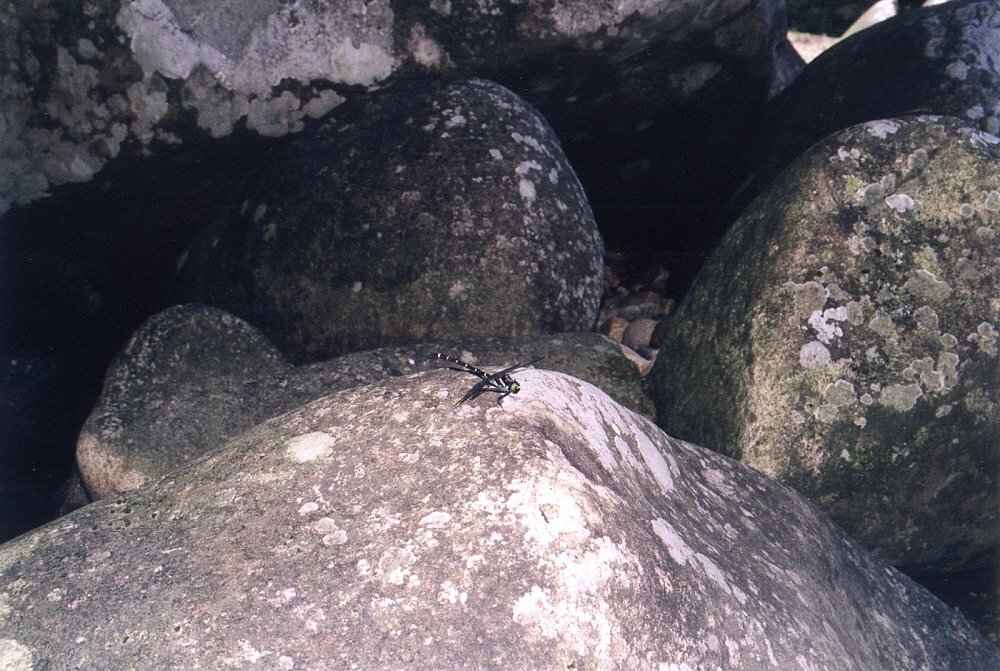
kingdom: Animalia
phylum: Arthropoda
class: Insecta
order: Odonata
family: Gomphidae
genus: Sieboldius
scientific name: Sieboldius albardae
